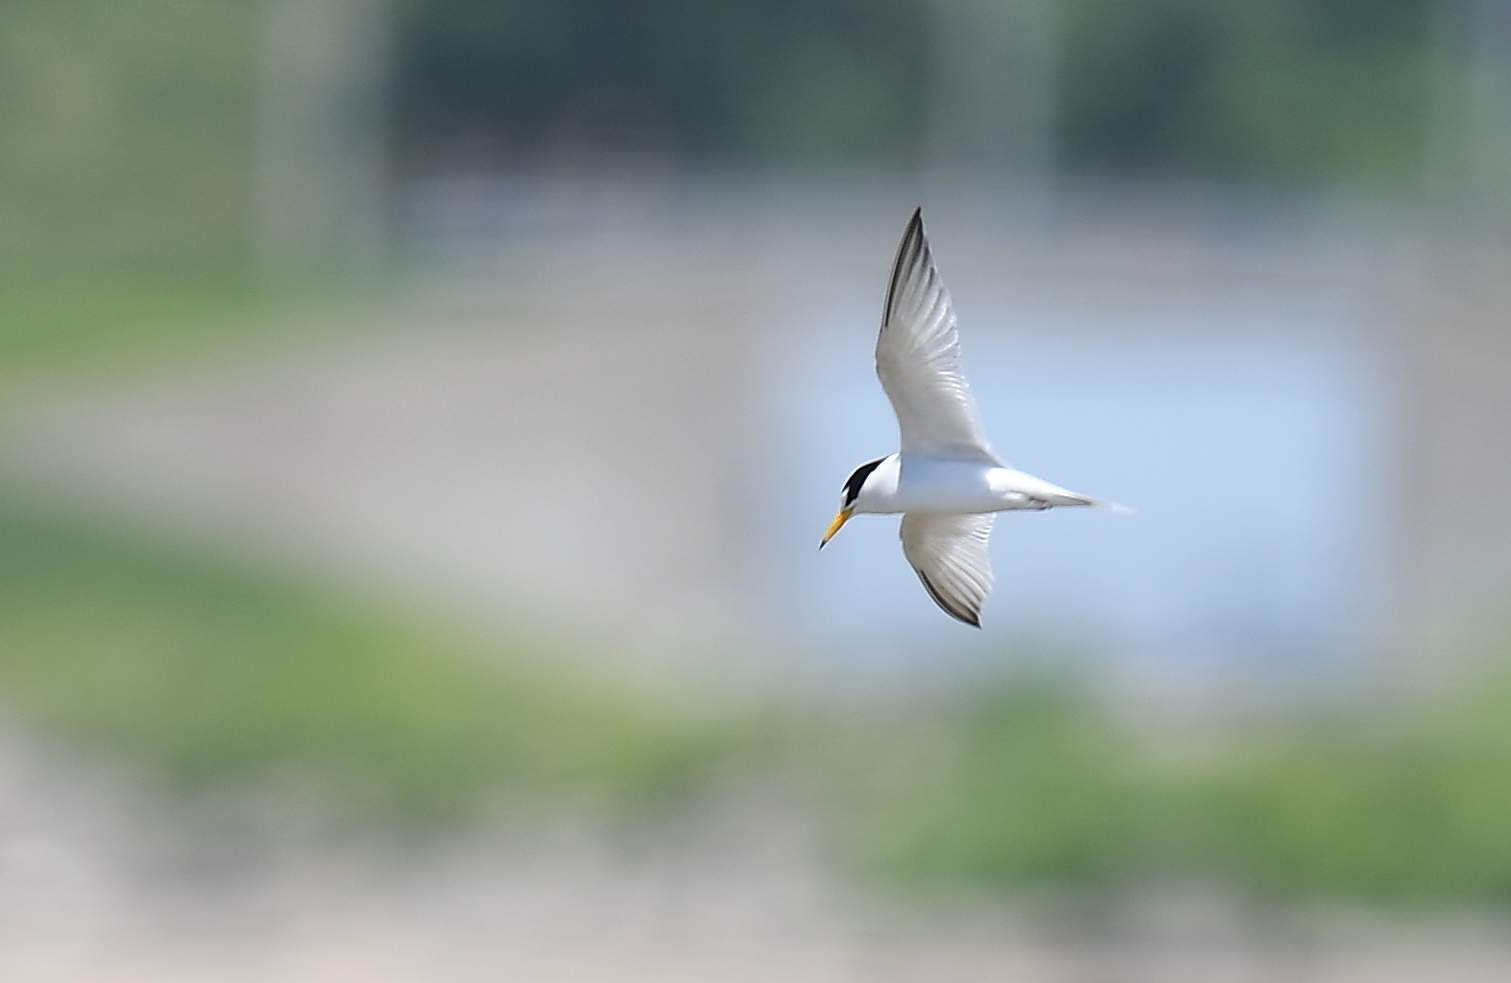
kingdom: Animalia
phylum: Chordata
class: Aves
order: Charadriiformes
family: Laridae
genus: Sternula
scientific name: Sternula antillarum
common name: Least tern
